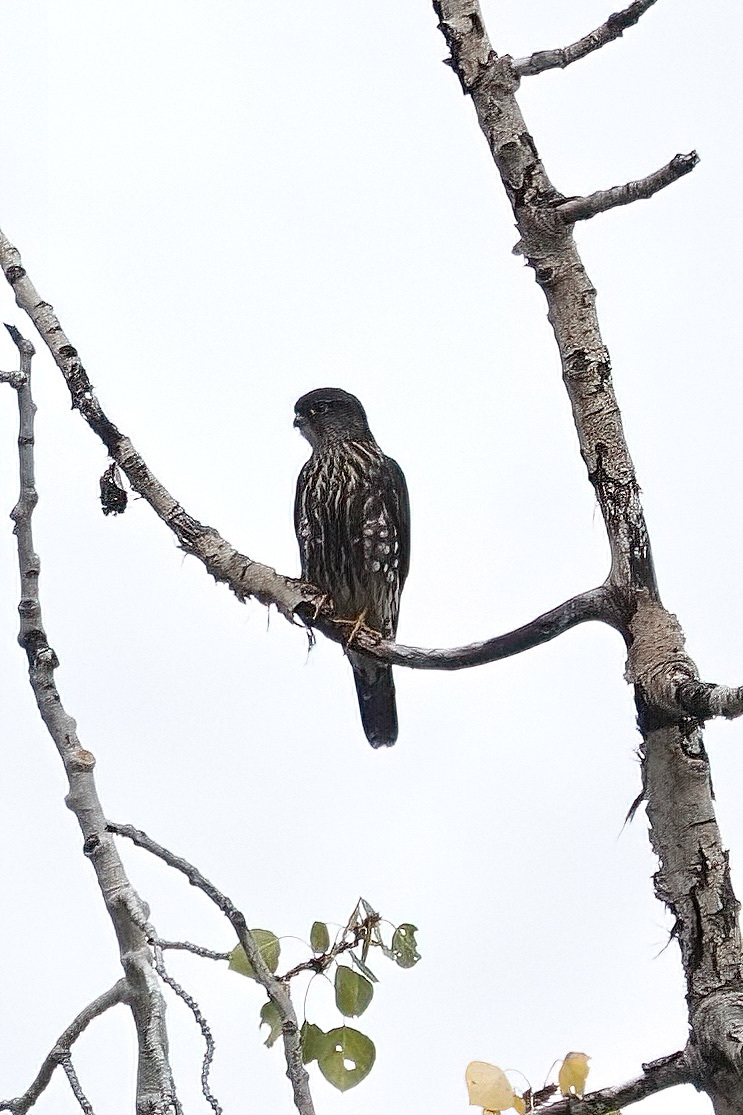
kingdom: Animalia
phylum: Chordata
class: Aves
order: Falconiformes
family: Falconidae
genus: Falco
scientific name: Falco columbarius
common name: Merlin
